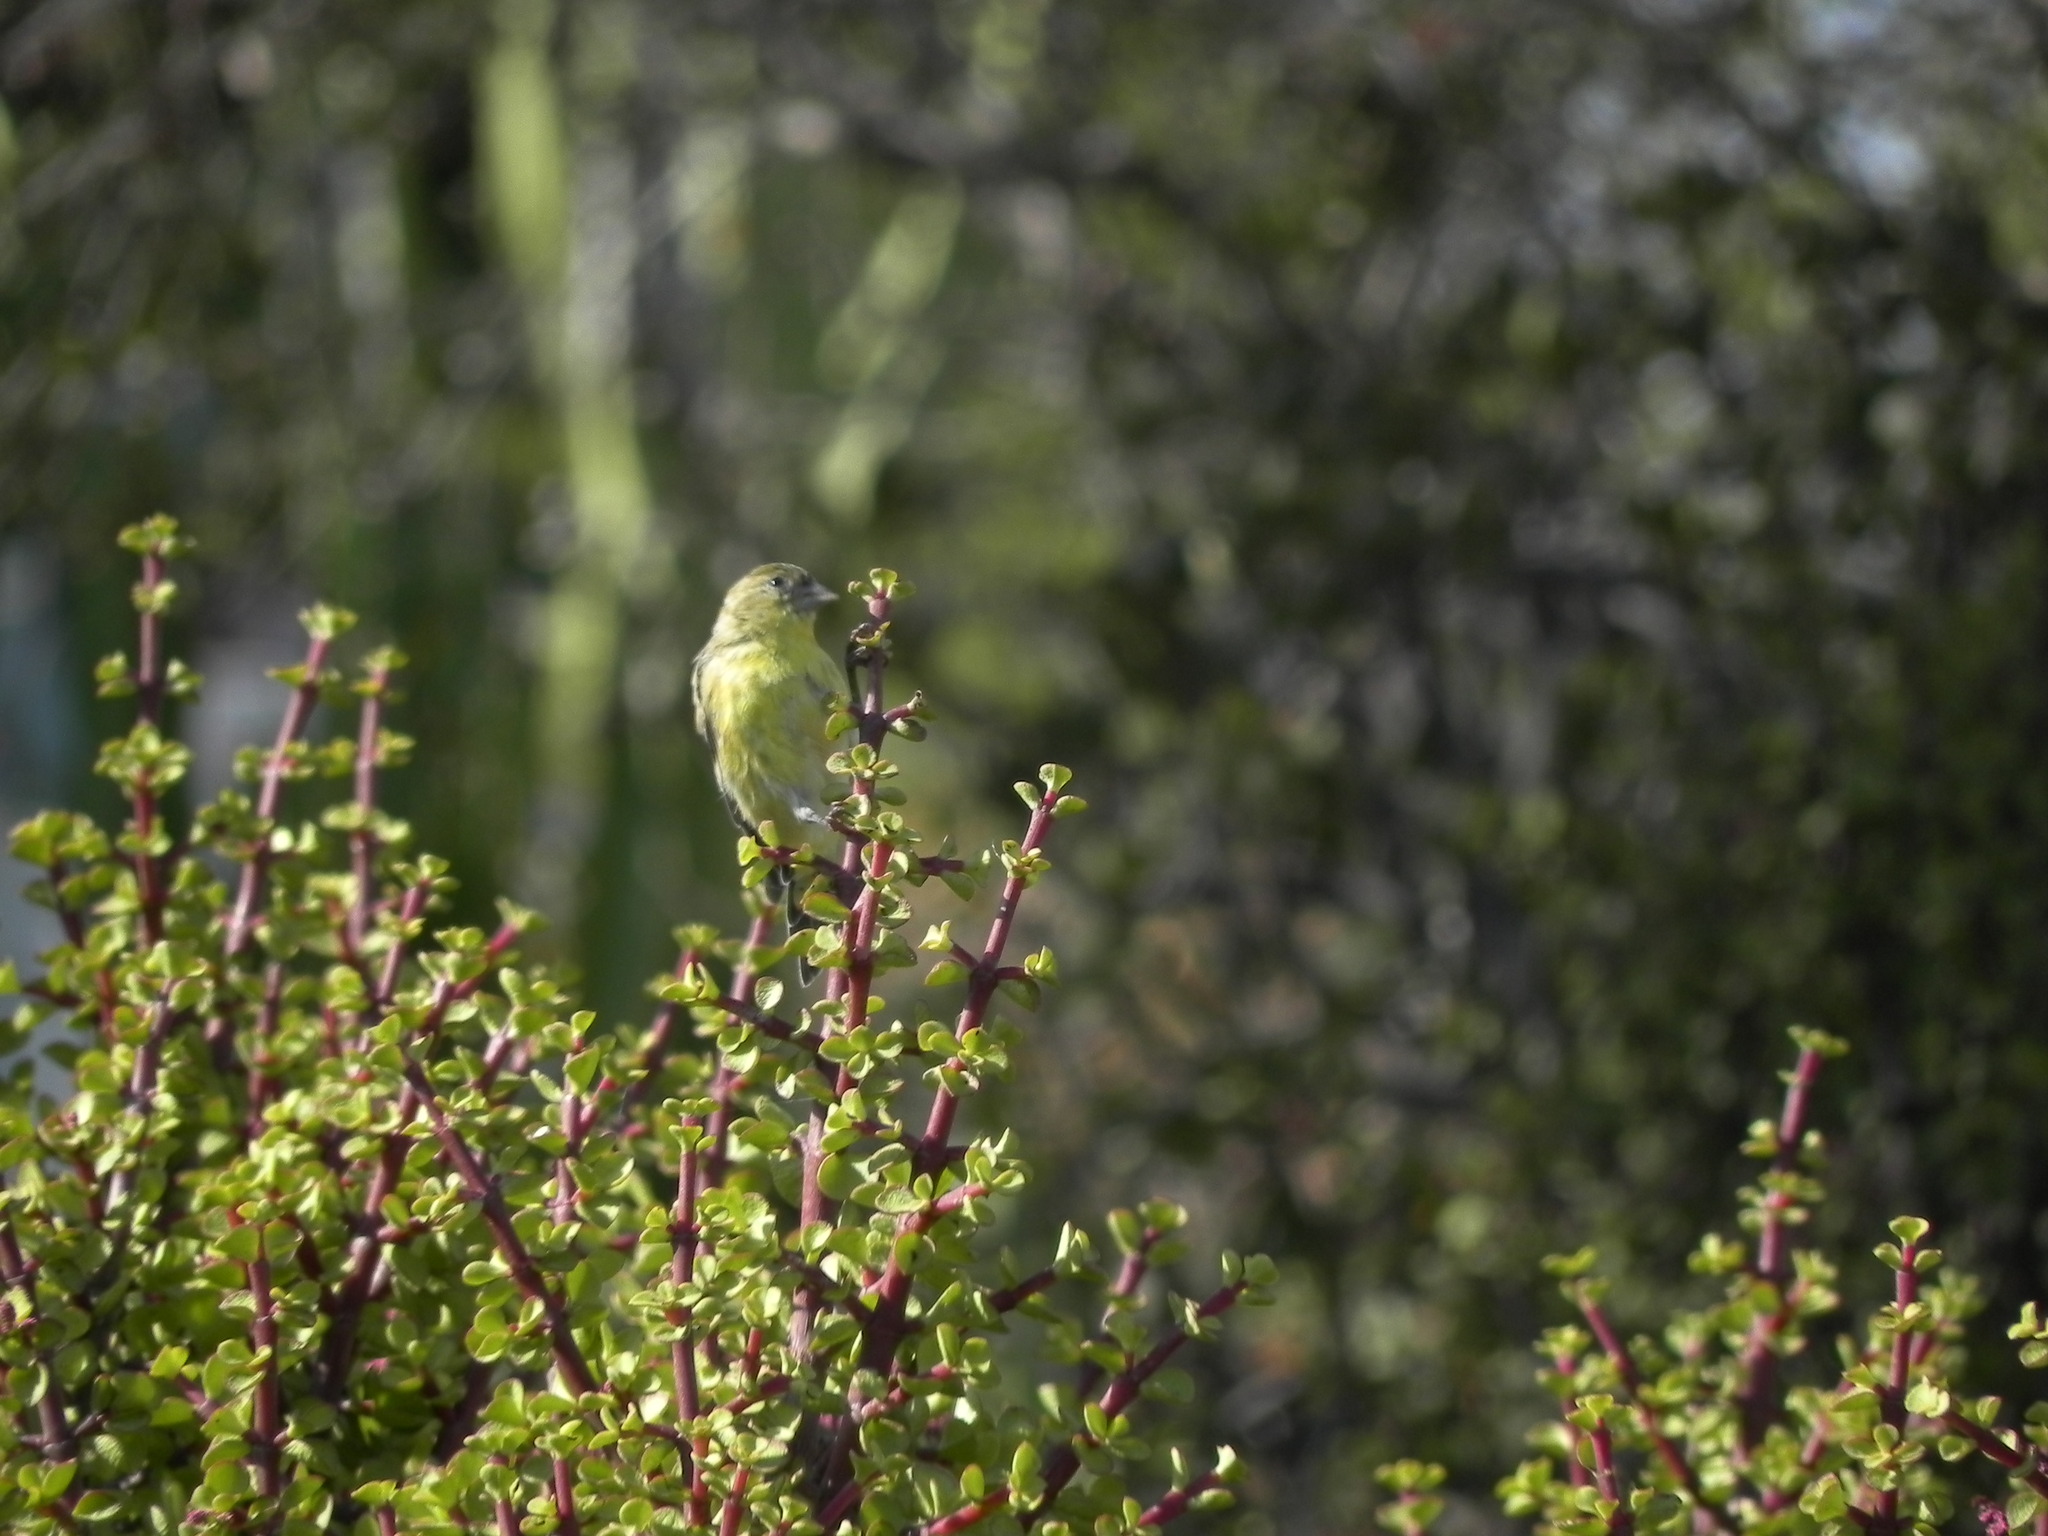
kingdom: Animalia
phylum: Chordata
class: Aves
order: Passeriformes
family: Fringillidae
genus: Spinus
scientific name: Spinus psaltria
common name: Lesser goldfinch
